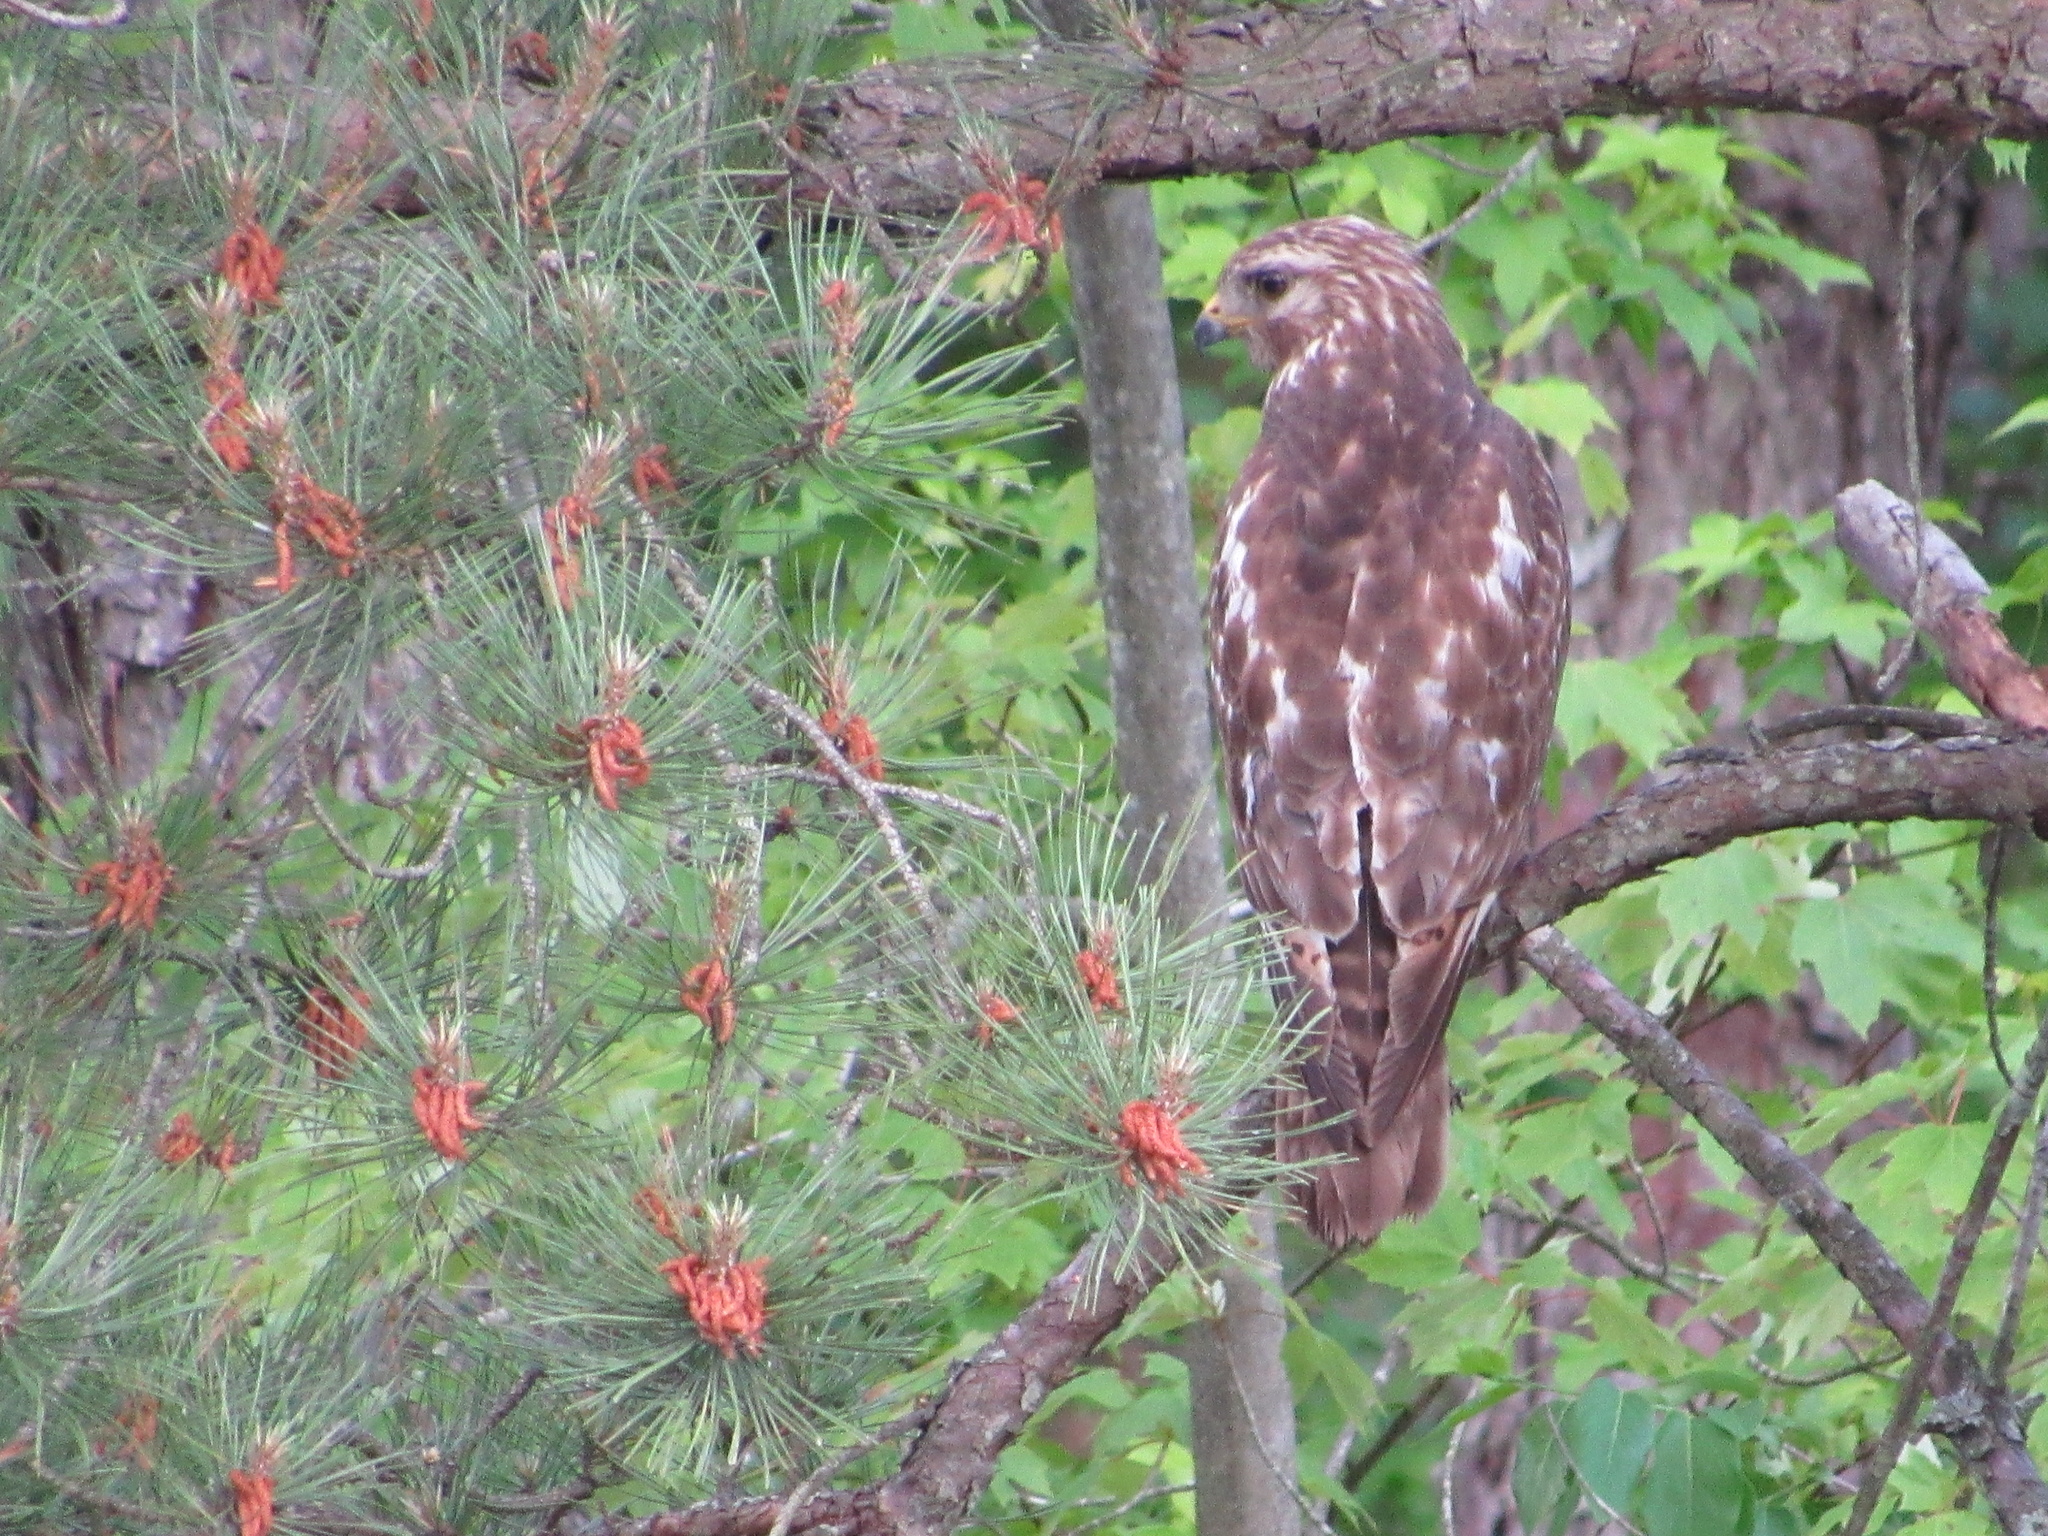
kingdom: Animalia
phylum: Chordata
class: Aves
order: Accipitriformes
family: Accipitridae
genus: Buteo
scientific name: Buteo lineatus
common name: Red-shouldered hawk
